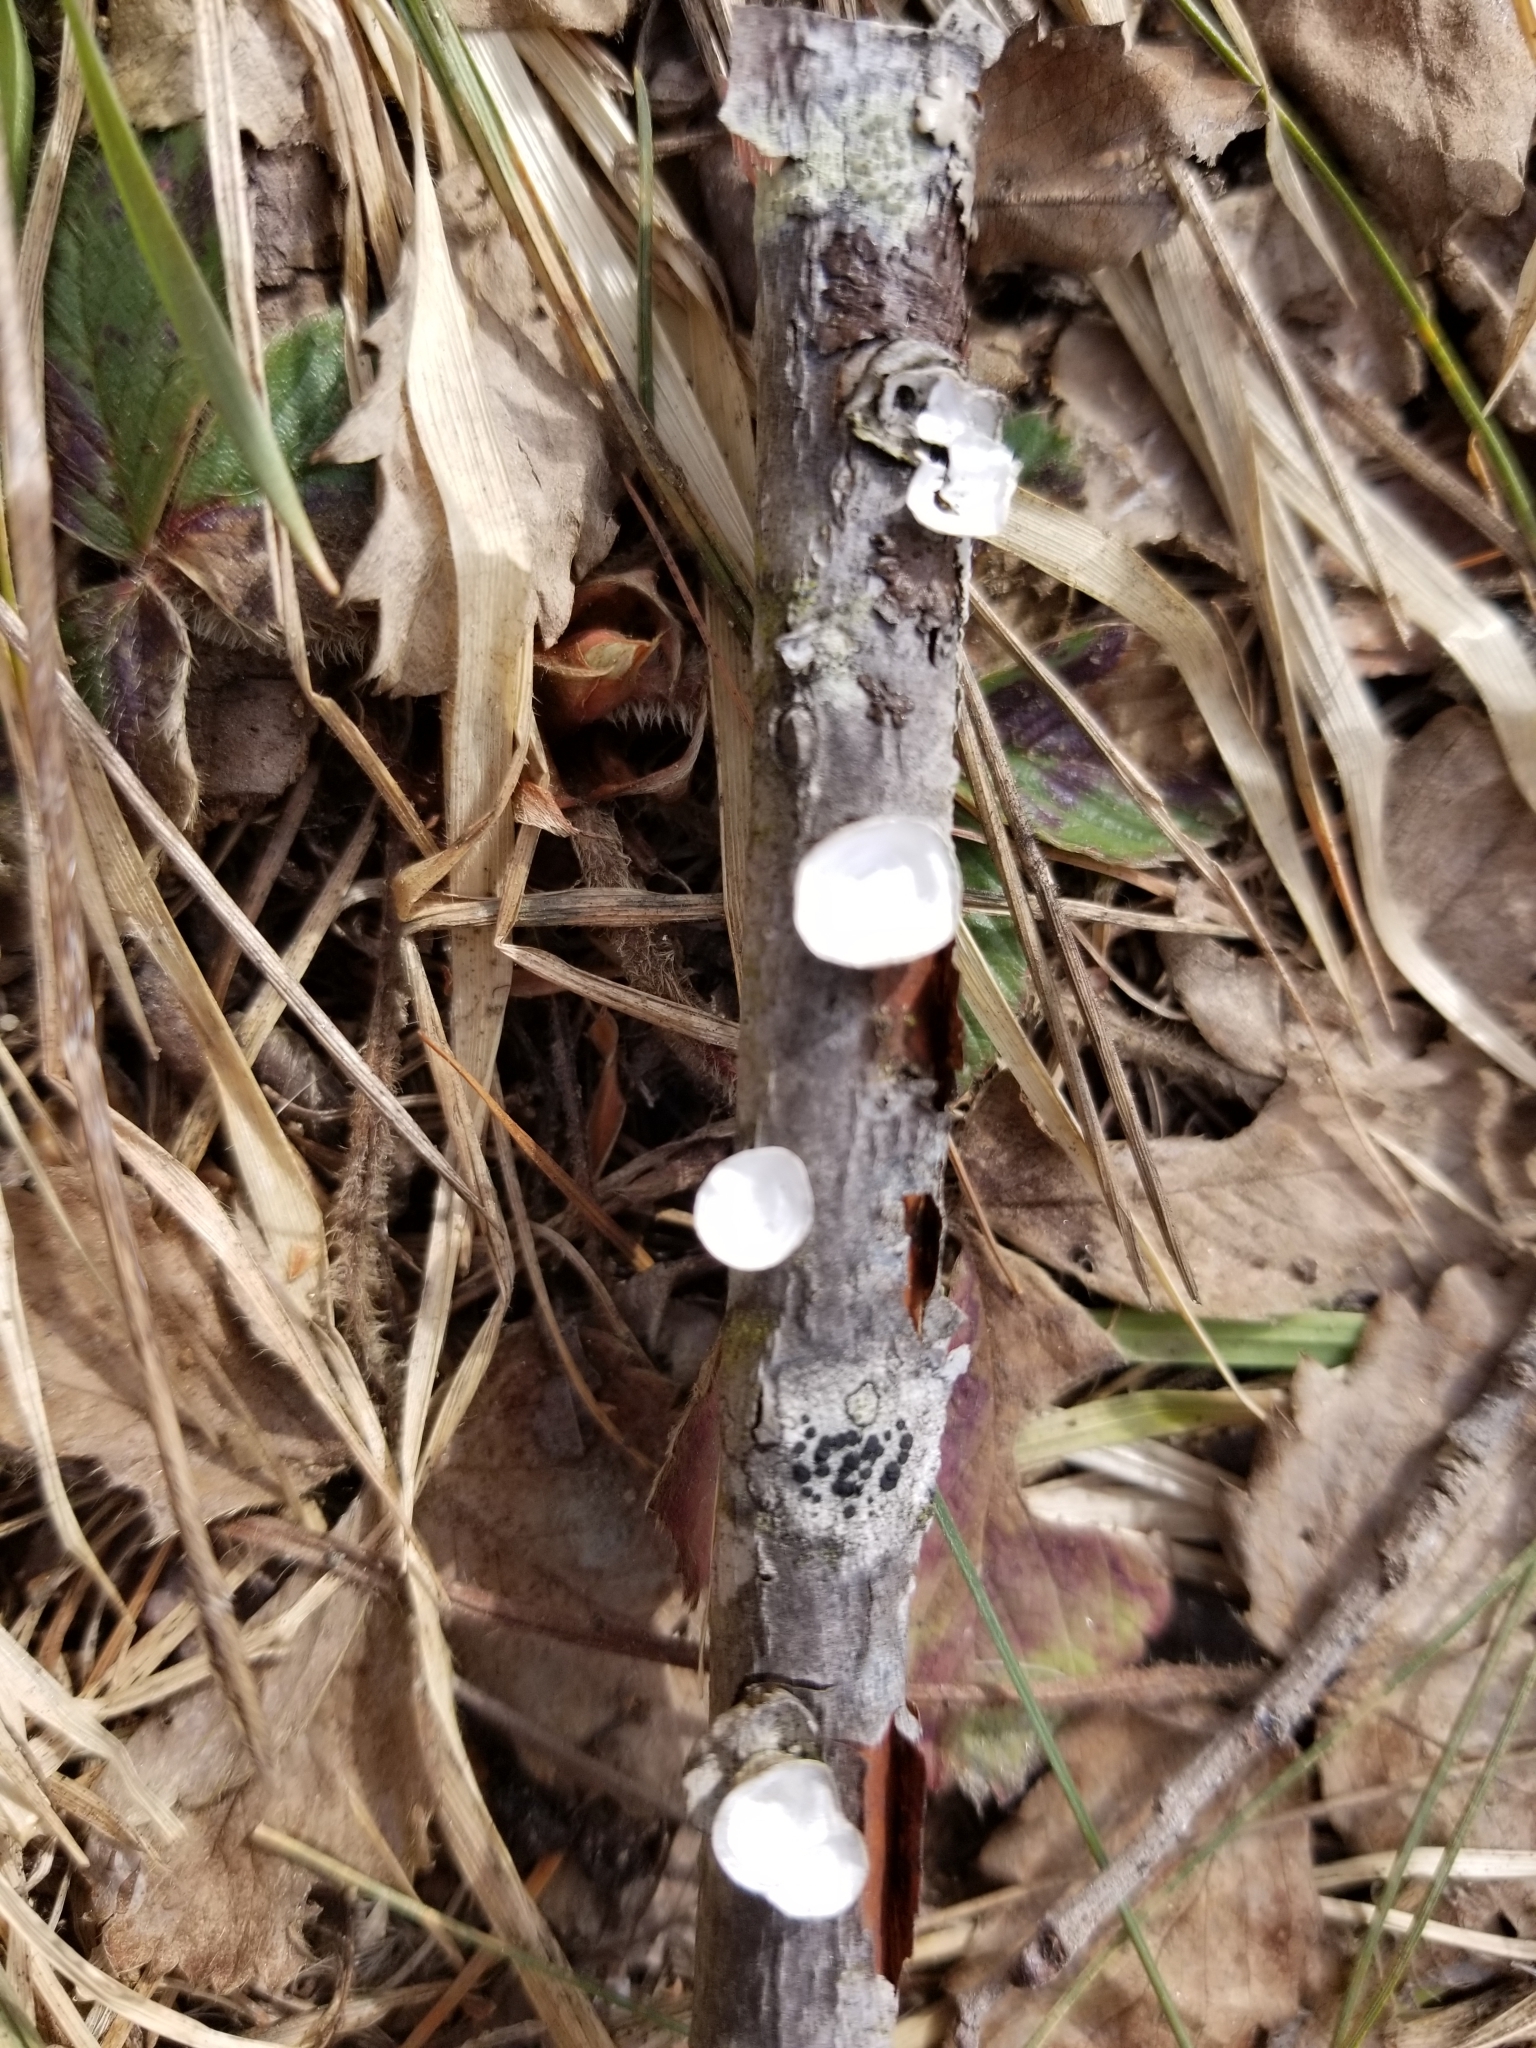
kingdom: Fungi
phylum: Basidiomycota
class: Agaricomycetes
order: Polyporales
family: Polyporaceae
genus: Poronidulus
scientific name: Poronidulus conchifer
